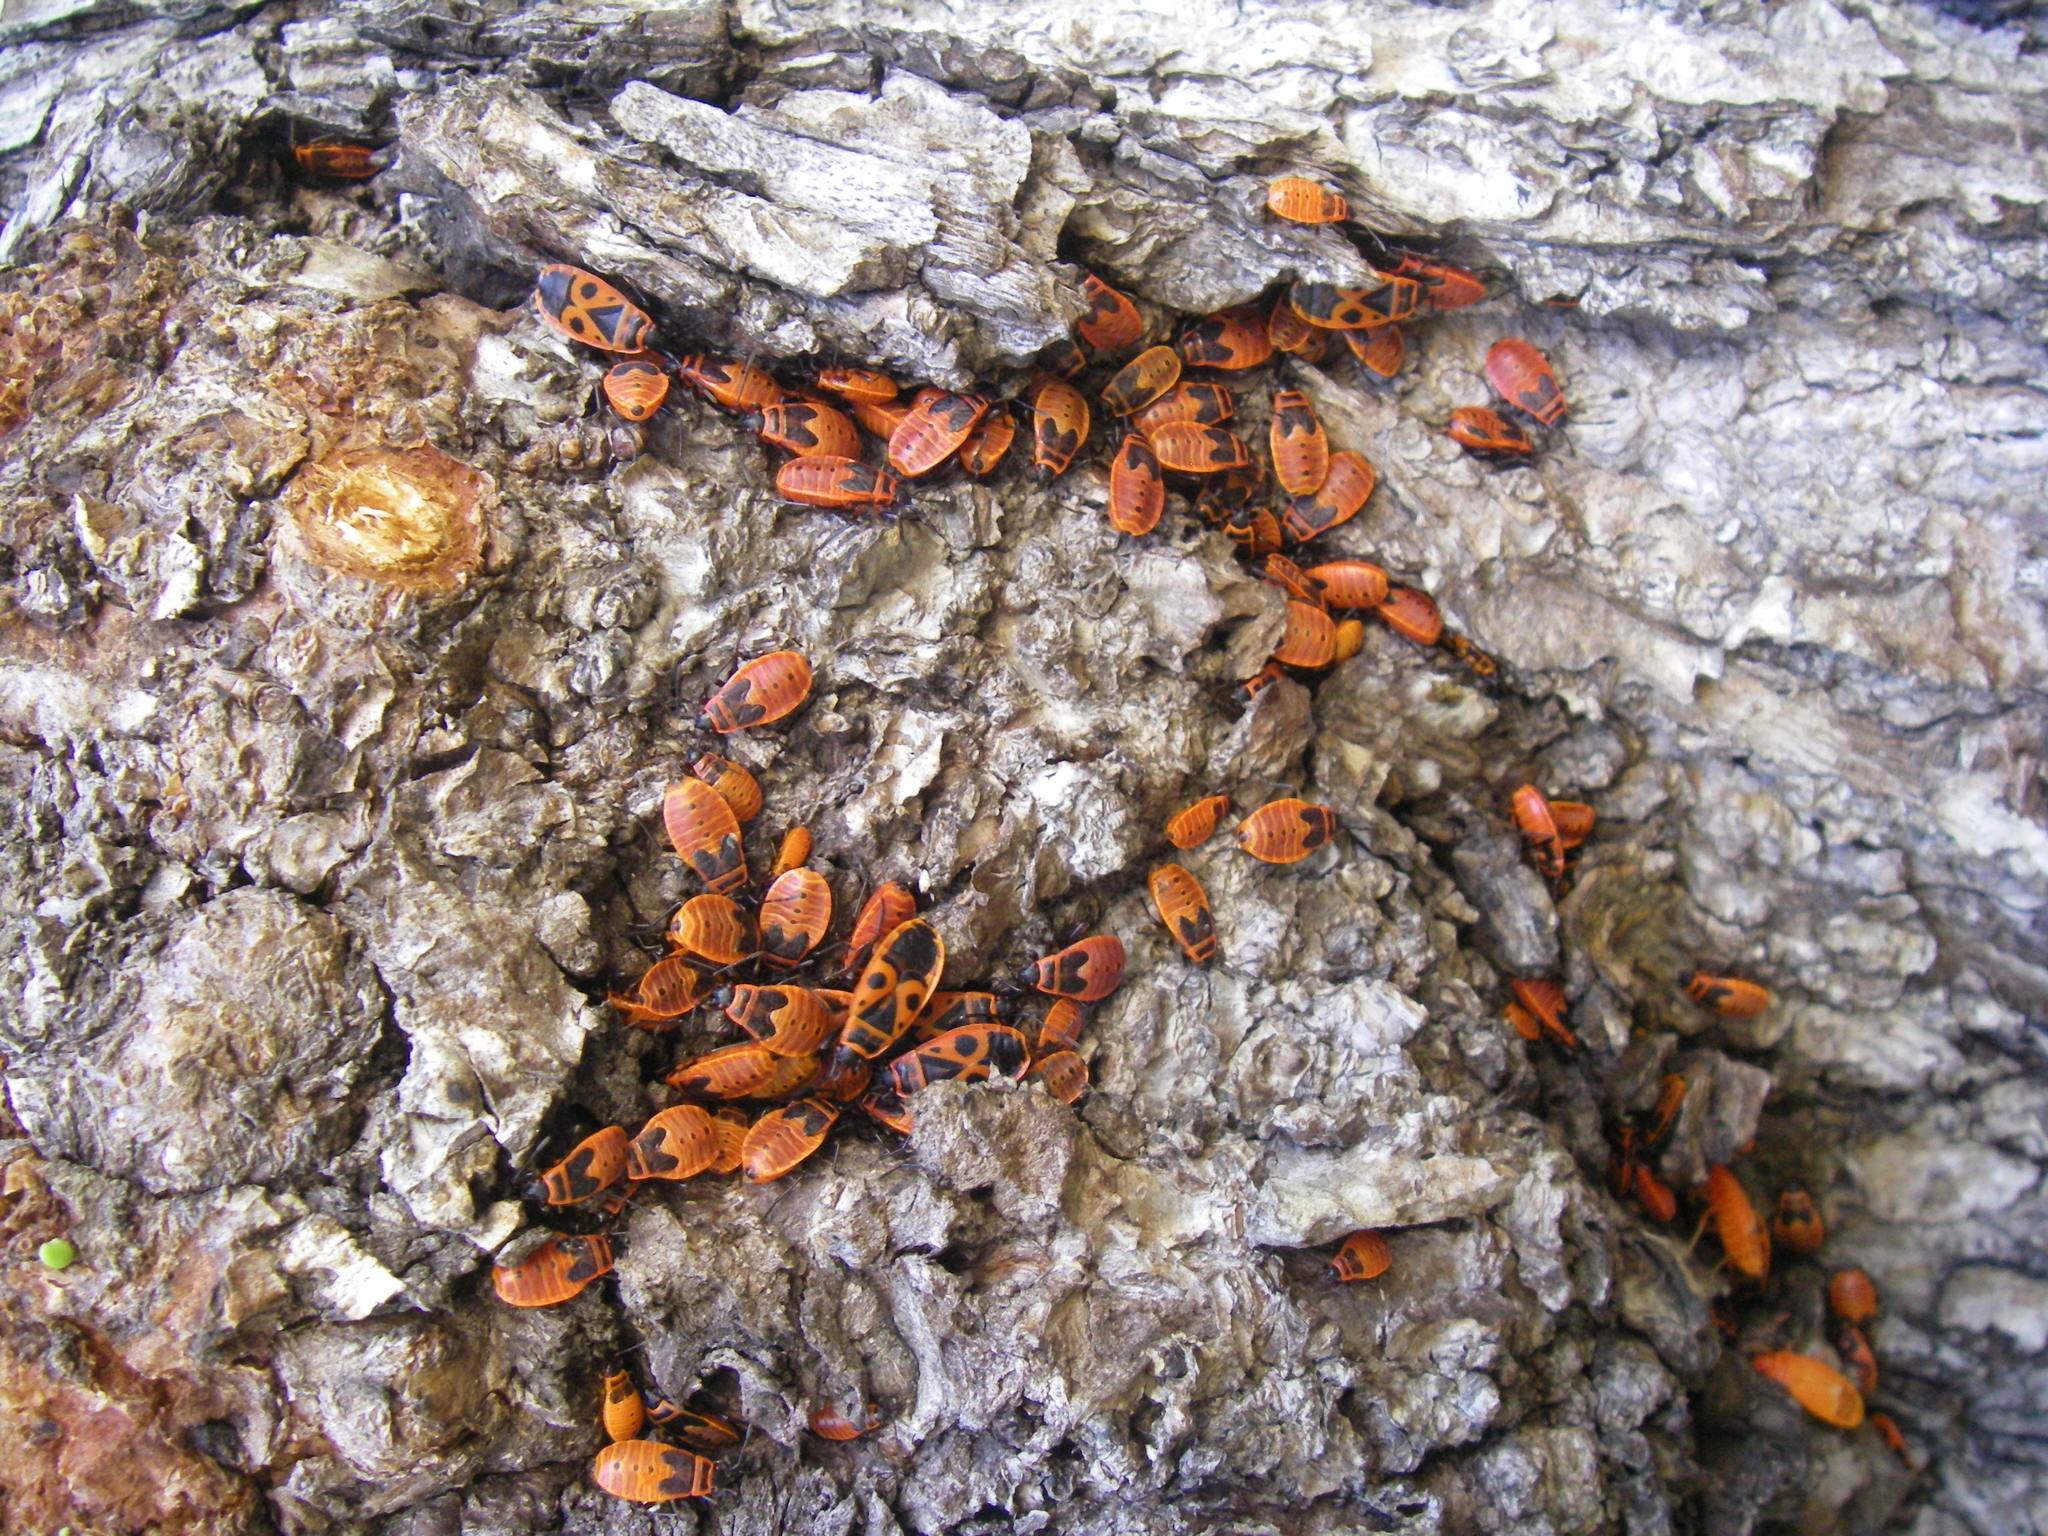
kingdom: Animalia
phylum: Arthropoda
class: Insecta
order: Hemiptera
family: Pyrrhocoridae
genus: Pyrrhocoris
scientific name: Pyrrhocoris apterus
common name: Firebug
